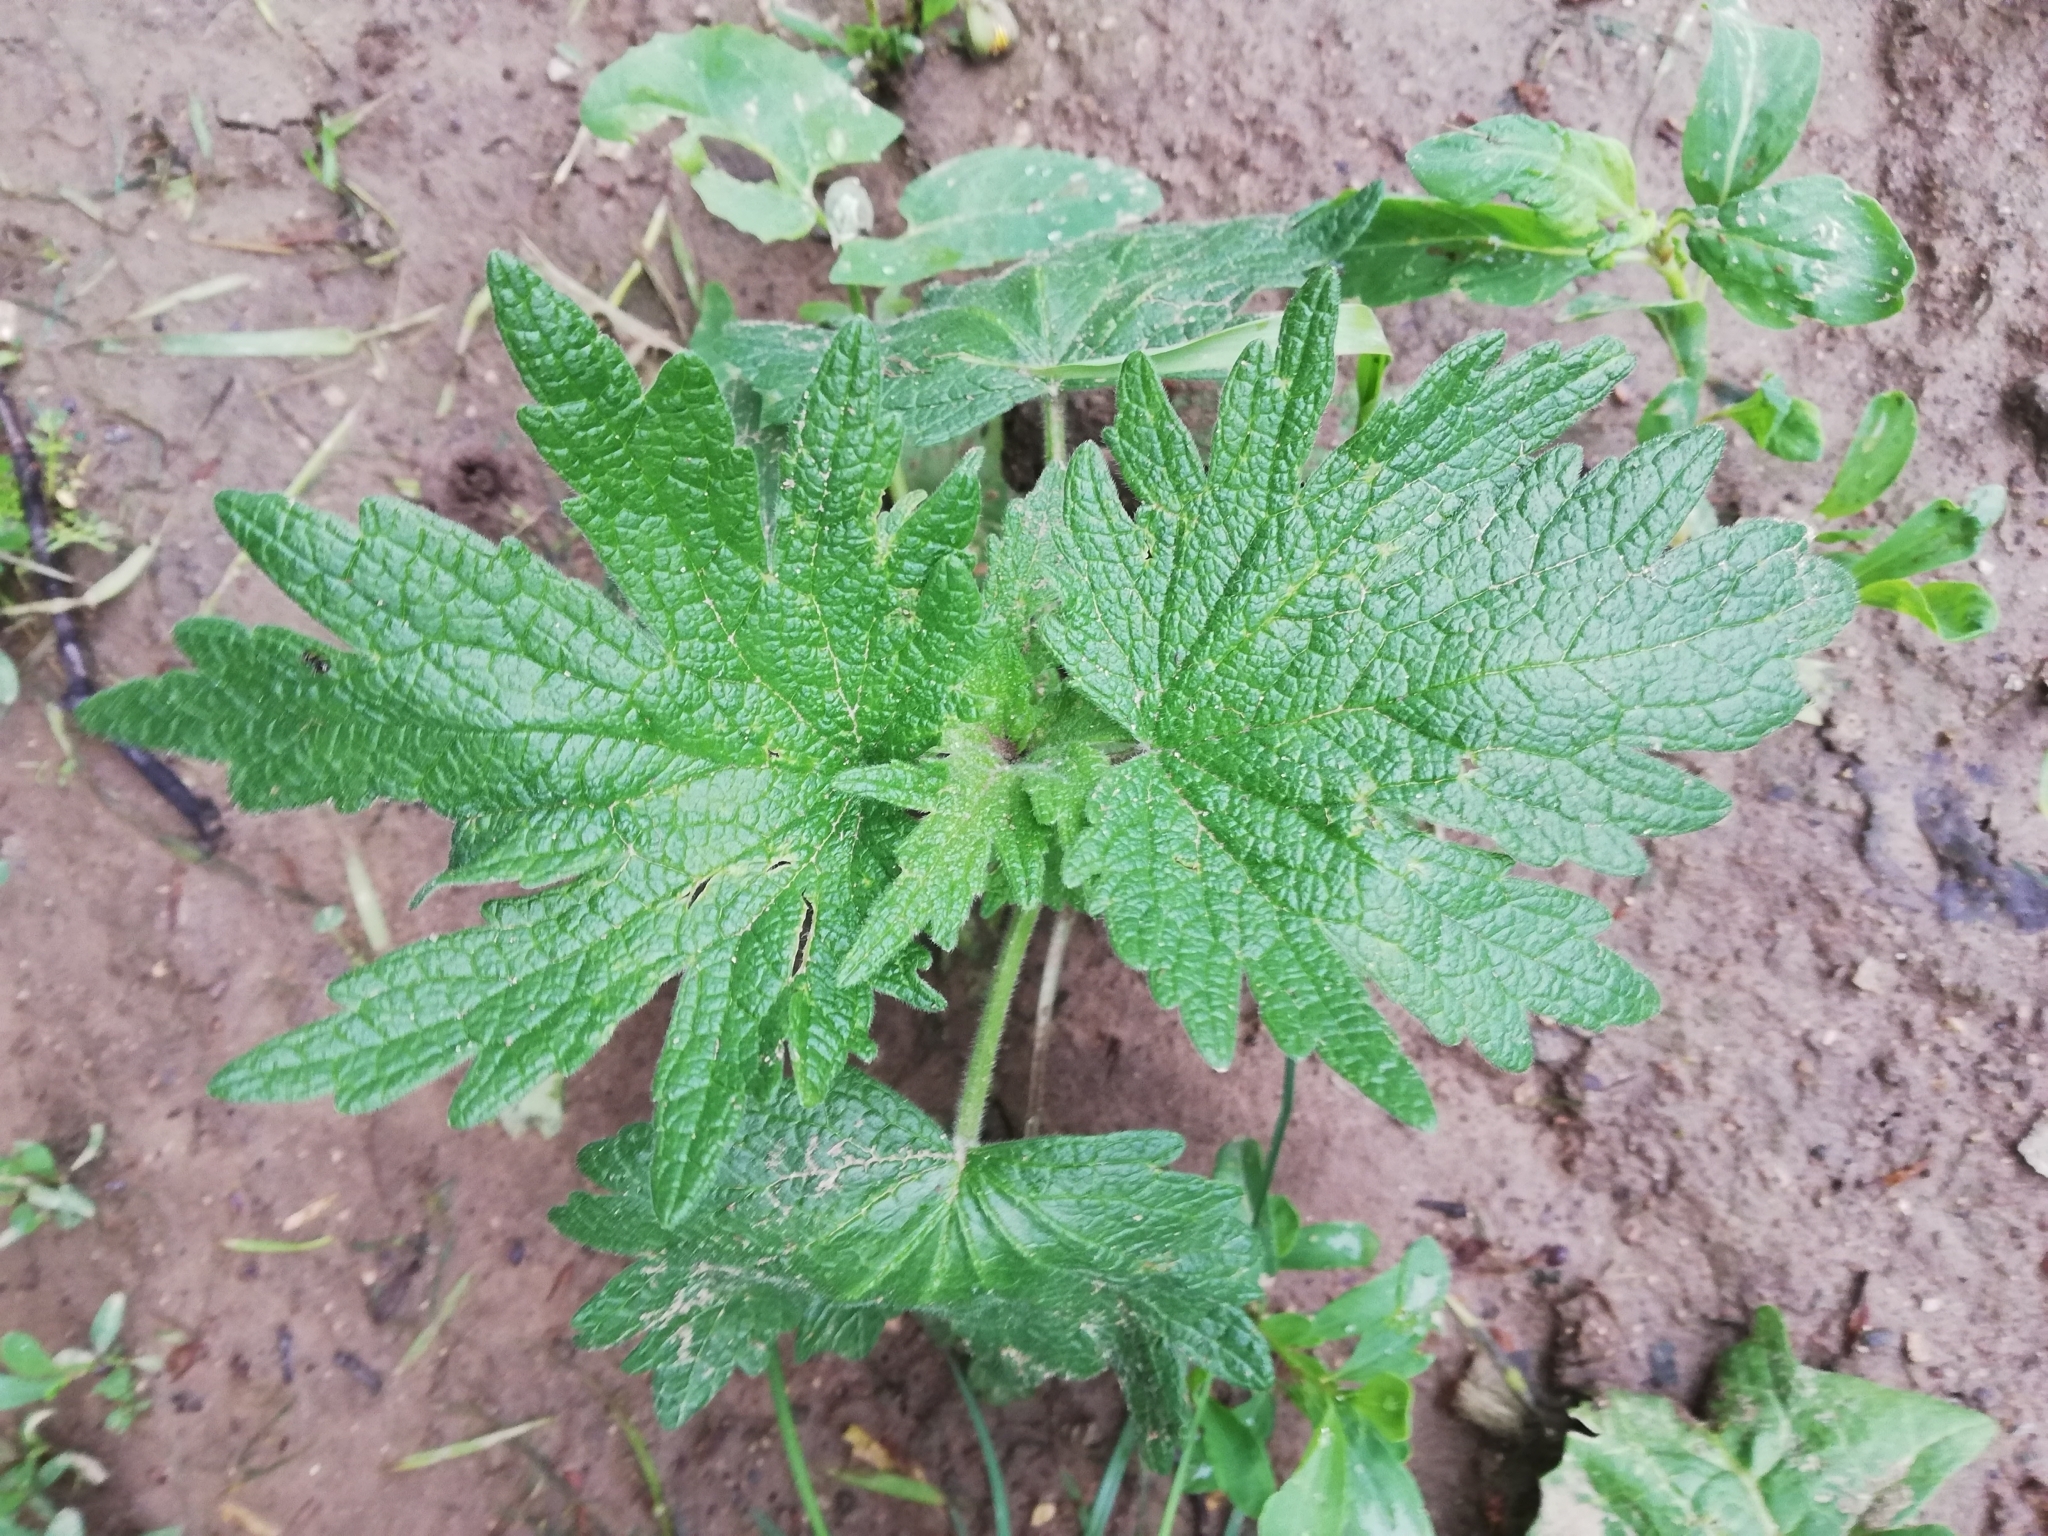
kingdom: Plantae
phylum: Tracheophyta
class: Magnoliopsida
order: Lamiales
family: Lamiaceae
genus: Leonurus
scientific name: Leonurus quinquelobatus
